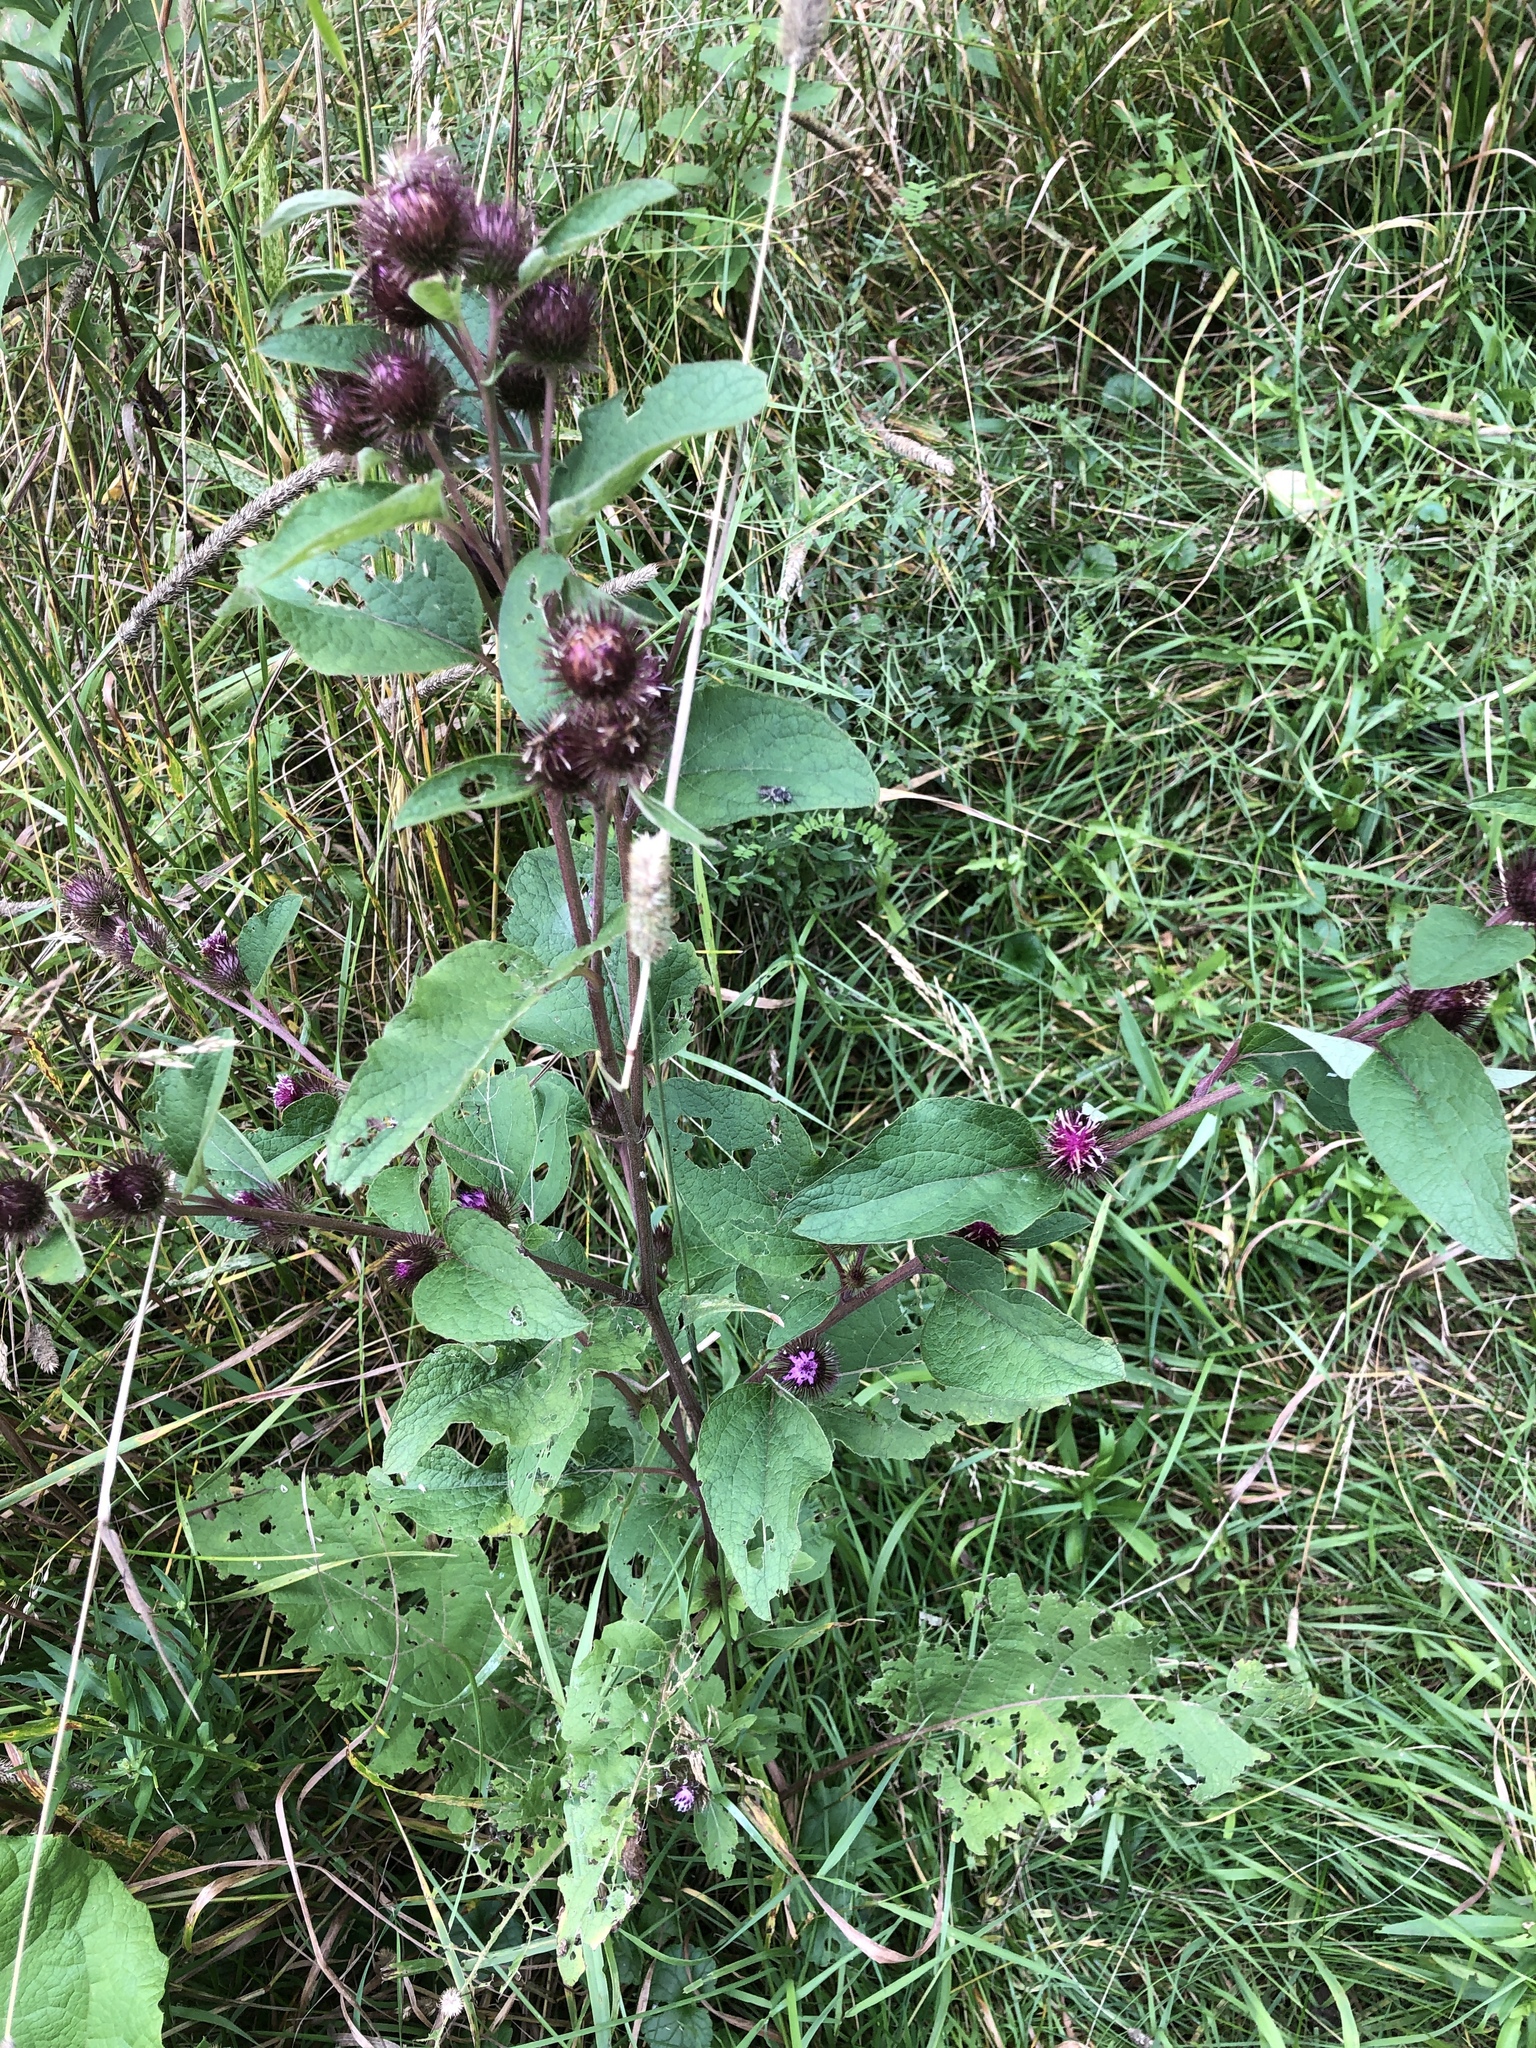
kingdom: Plantae
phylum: Tracheophyta
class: Magnoliopsida
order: Asterales
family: Asteraceae
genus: Arctium
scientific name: Arctium minus
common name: Lesser burdock
